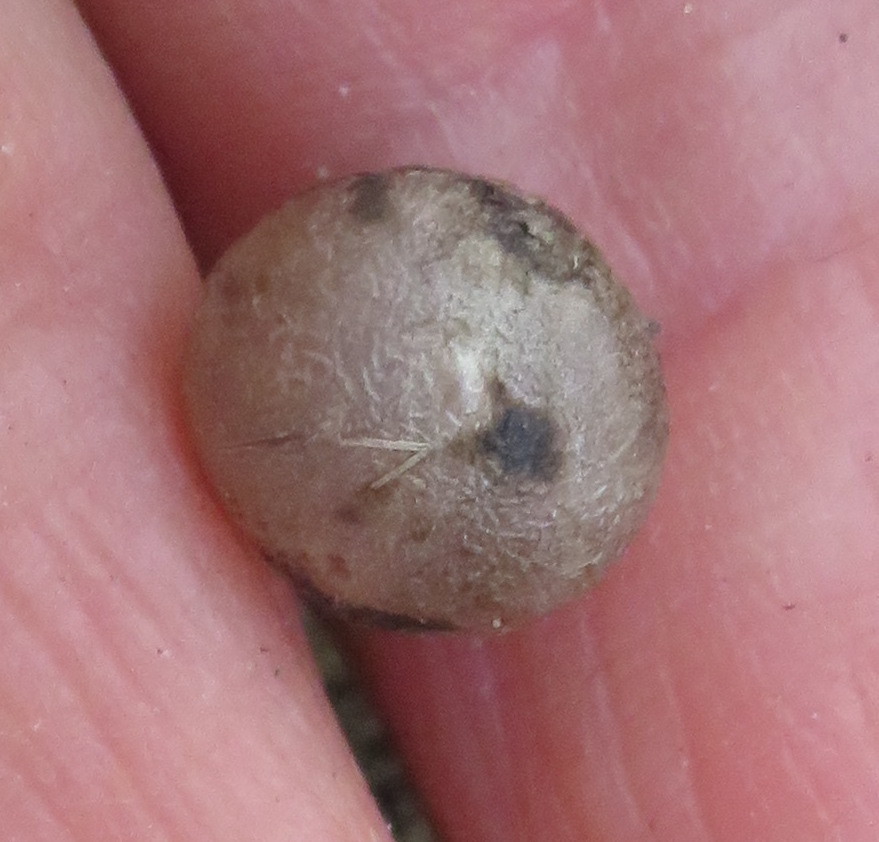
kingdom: Plantae
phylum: Tracheophyta
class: Liliopsida
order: Asparagales
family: Asparagaceae
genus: Dracaena
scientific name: Dracaena draco
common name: Canary island dragon tree
